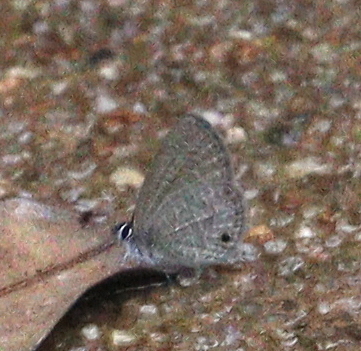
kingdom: Animalia
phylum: Arthropoda
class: Insecta
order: Lepidoptera
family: Lycaenidae
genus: Prosotas
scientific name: Prosotas dubiosa
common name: Tailless lineblue
